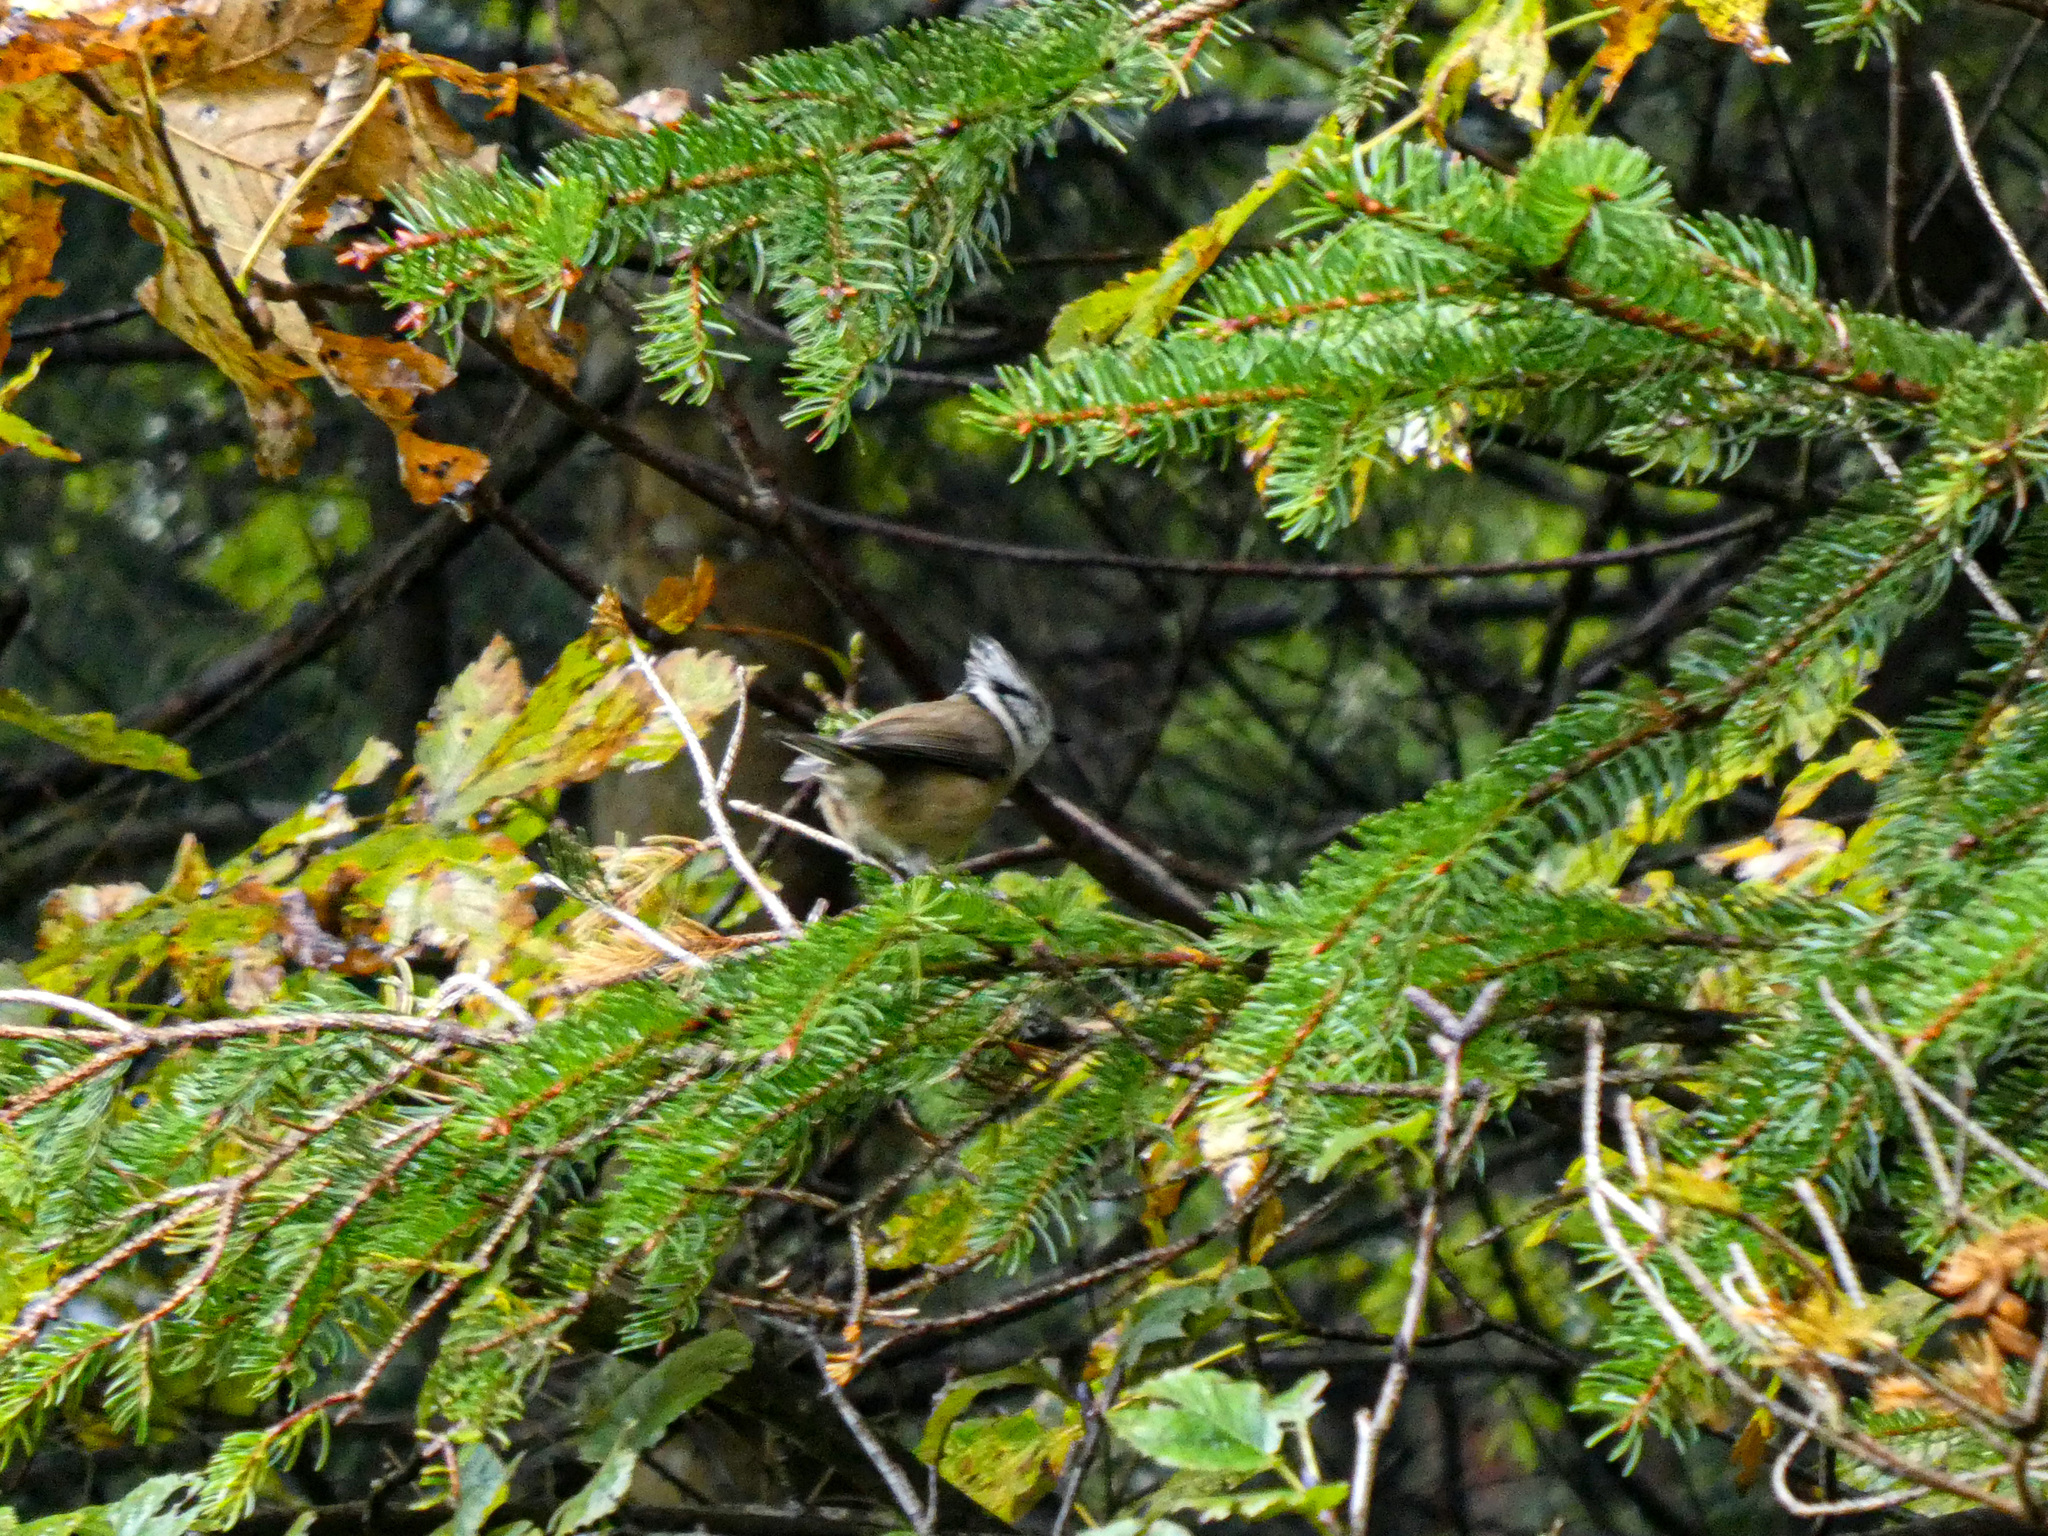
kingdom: Animalia
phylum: Chordata
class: Aves
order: Passeriformes
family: Paridae
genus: Lophophanes
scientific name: Lophophanes cristatus
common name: European crested tit
